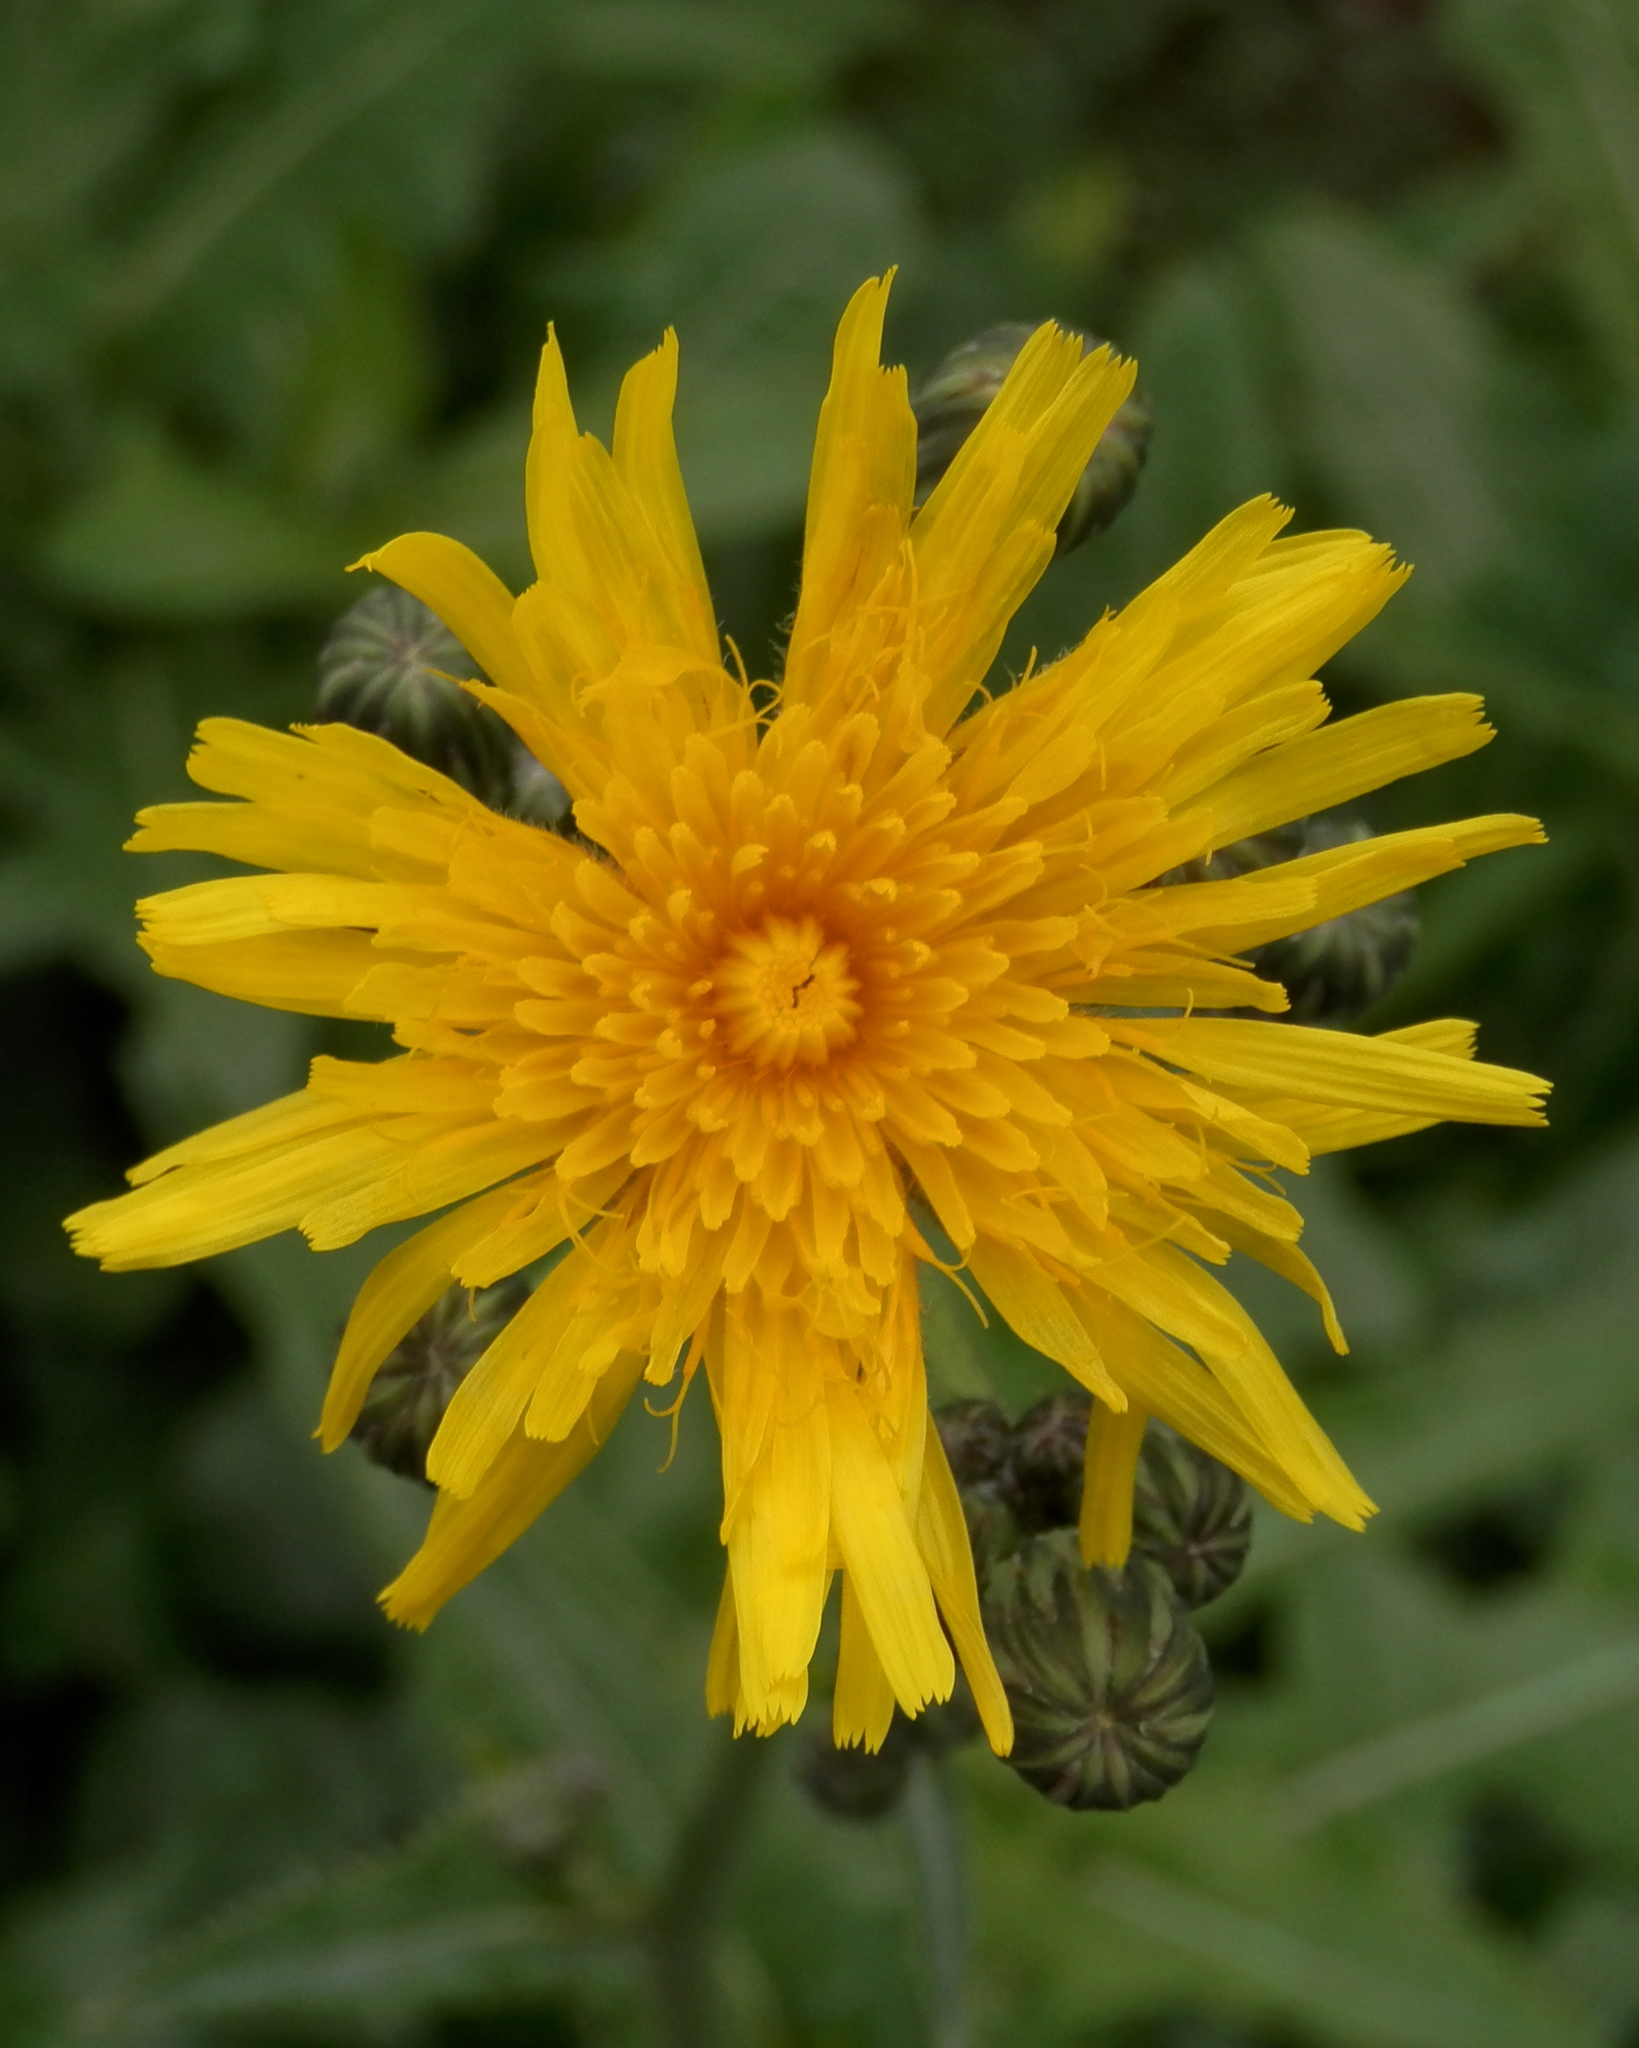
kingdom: Plantae
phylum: Tracheophyta
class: Magnoliopsida
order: Asterales
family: Asteraceae
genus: Sonchus
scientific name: Sonchus arvensis
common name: Perennial sow-thistle
